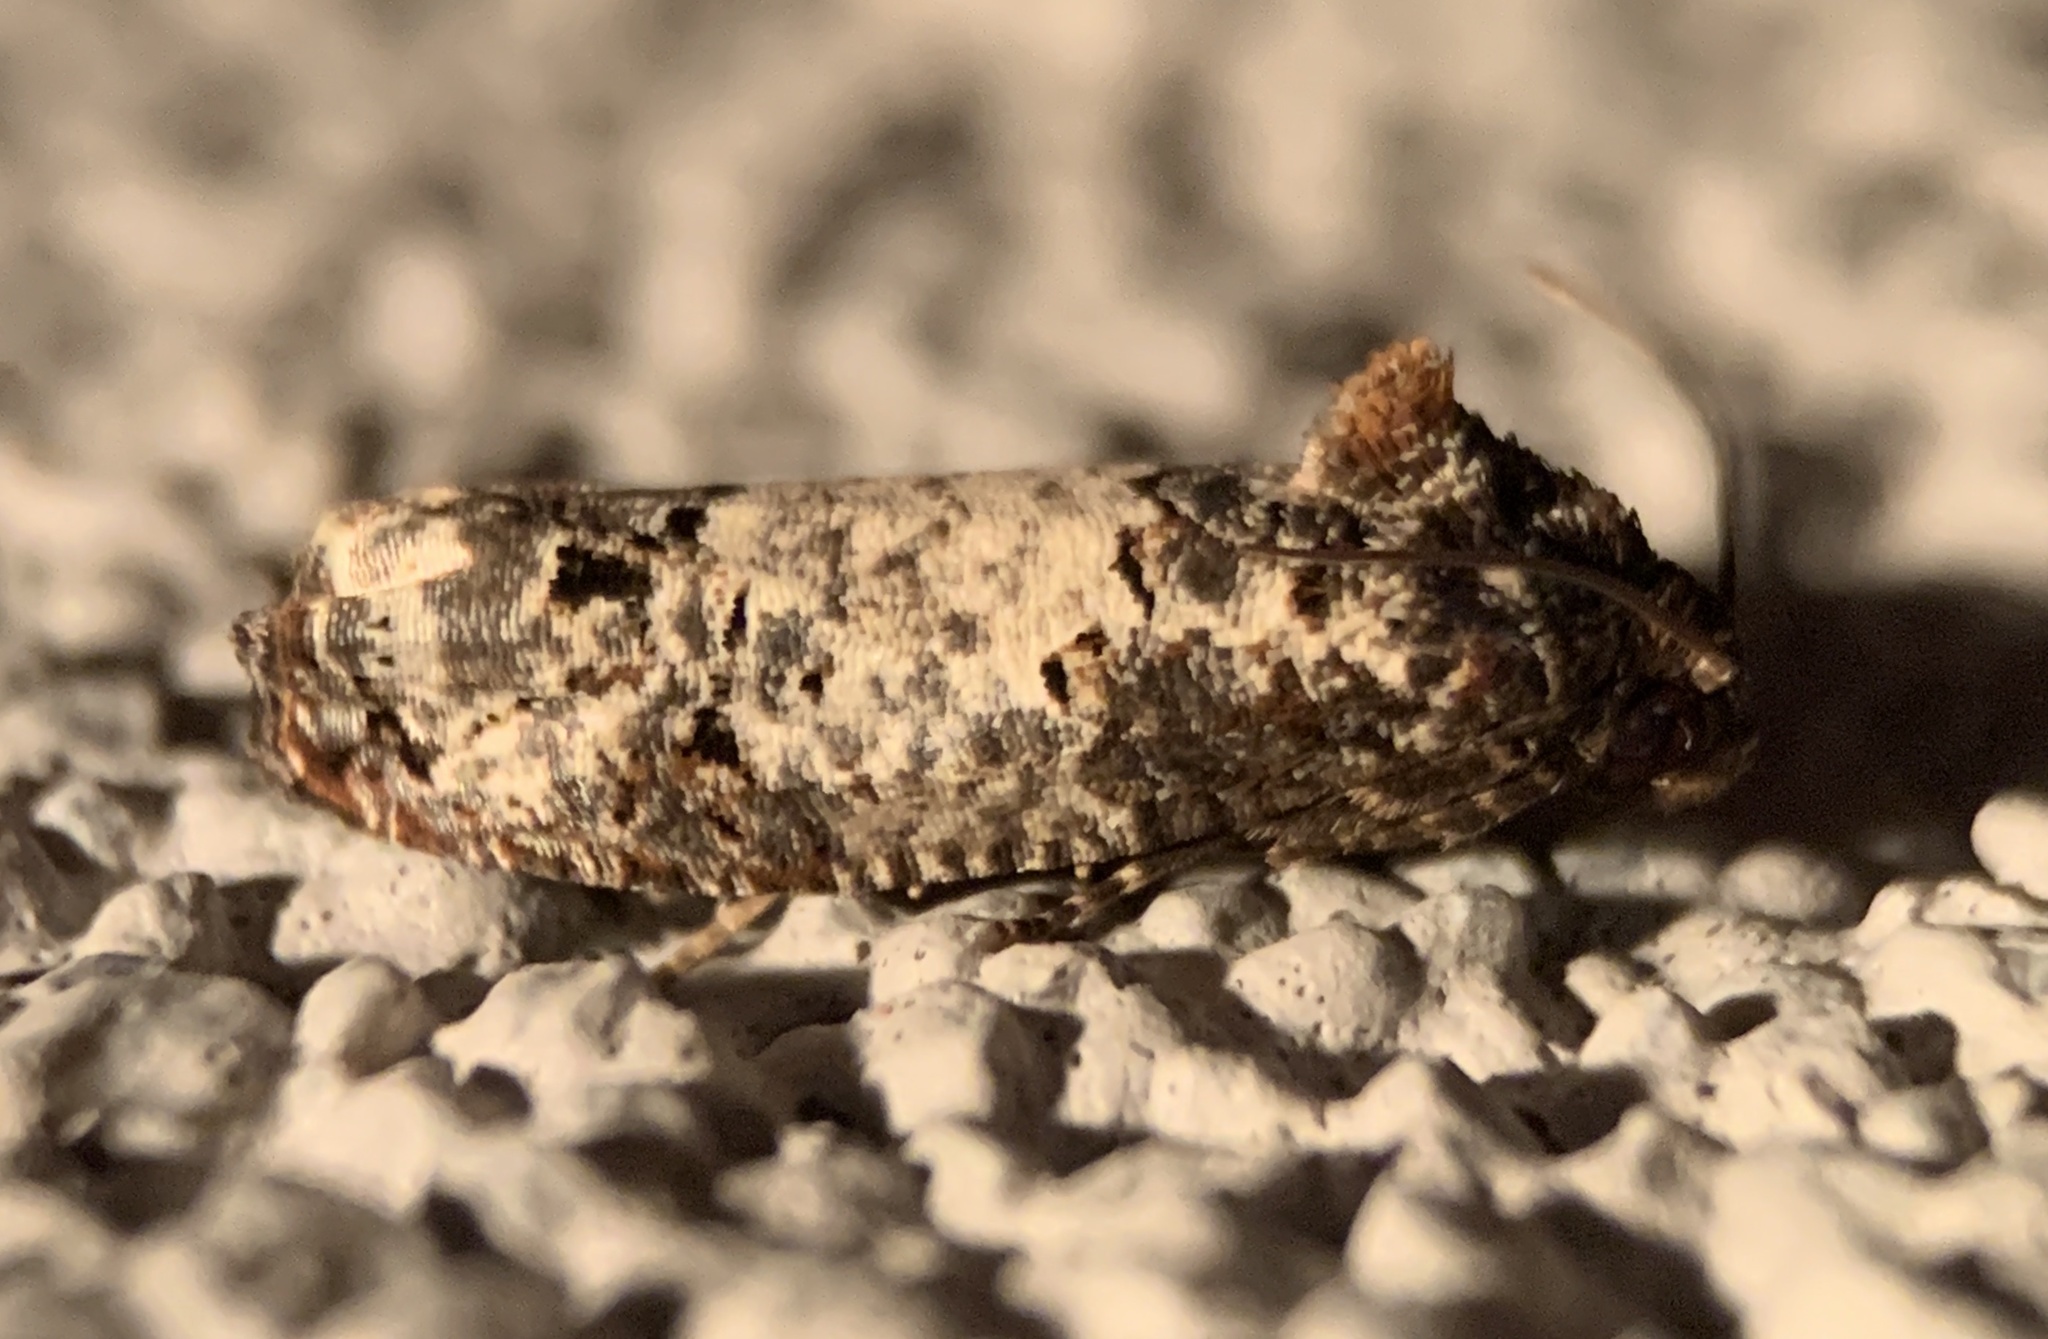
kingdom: Animalia
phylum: Arthropoda
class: Insecta
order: Lepidoptera
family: Tortricidae
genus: Epiblema
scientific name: Epiblema carolinana
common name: Gray-blotched epiblema moth
